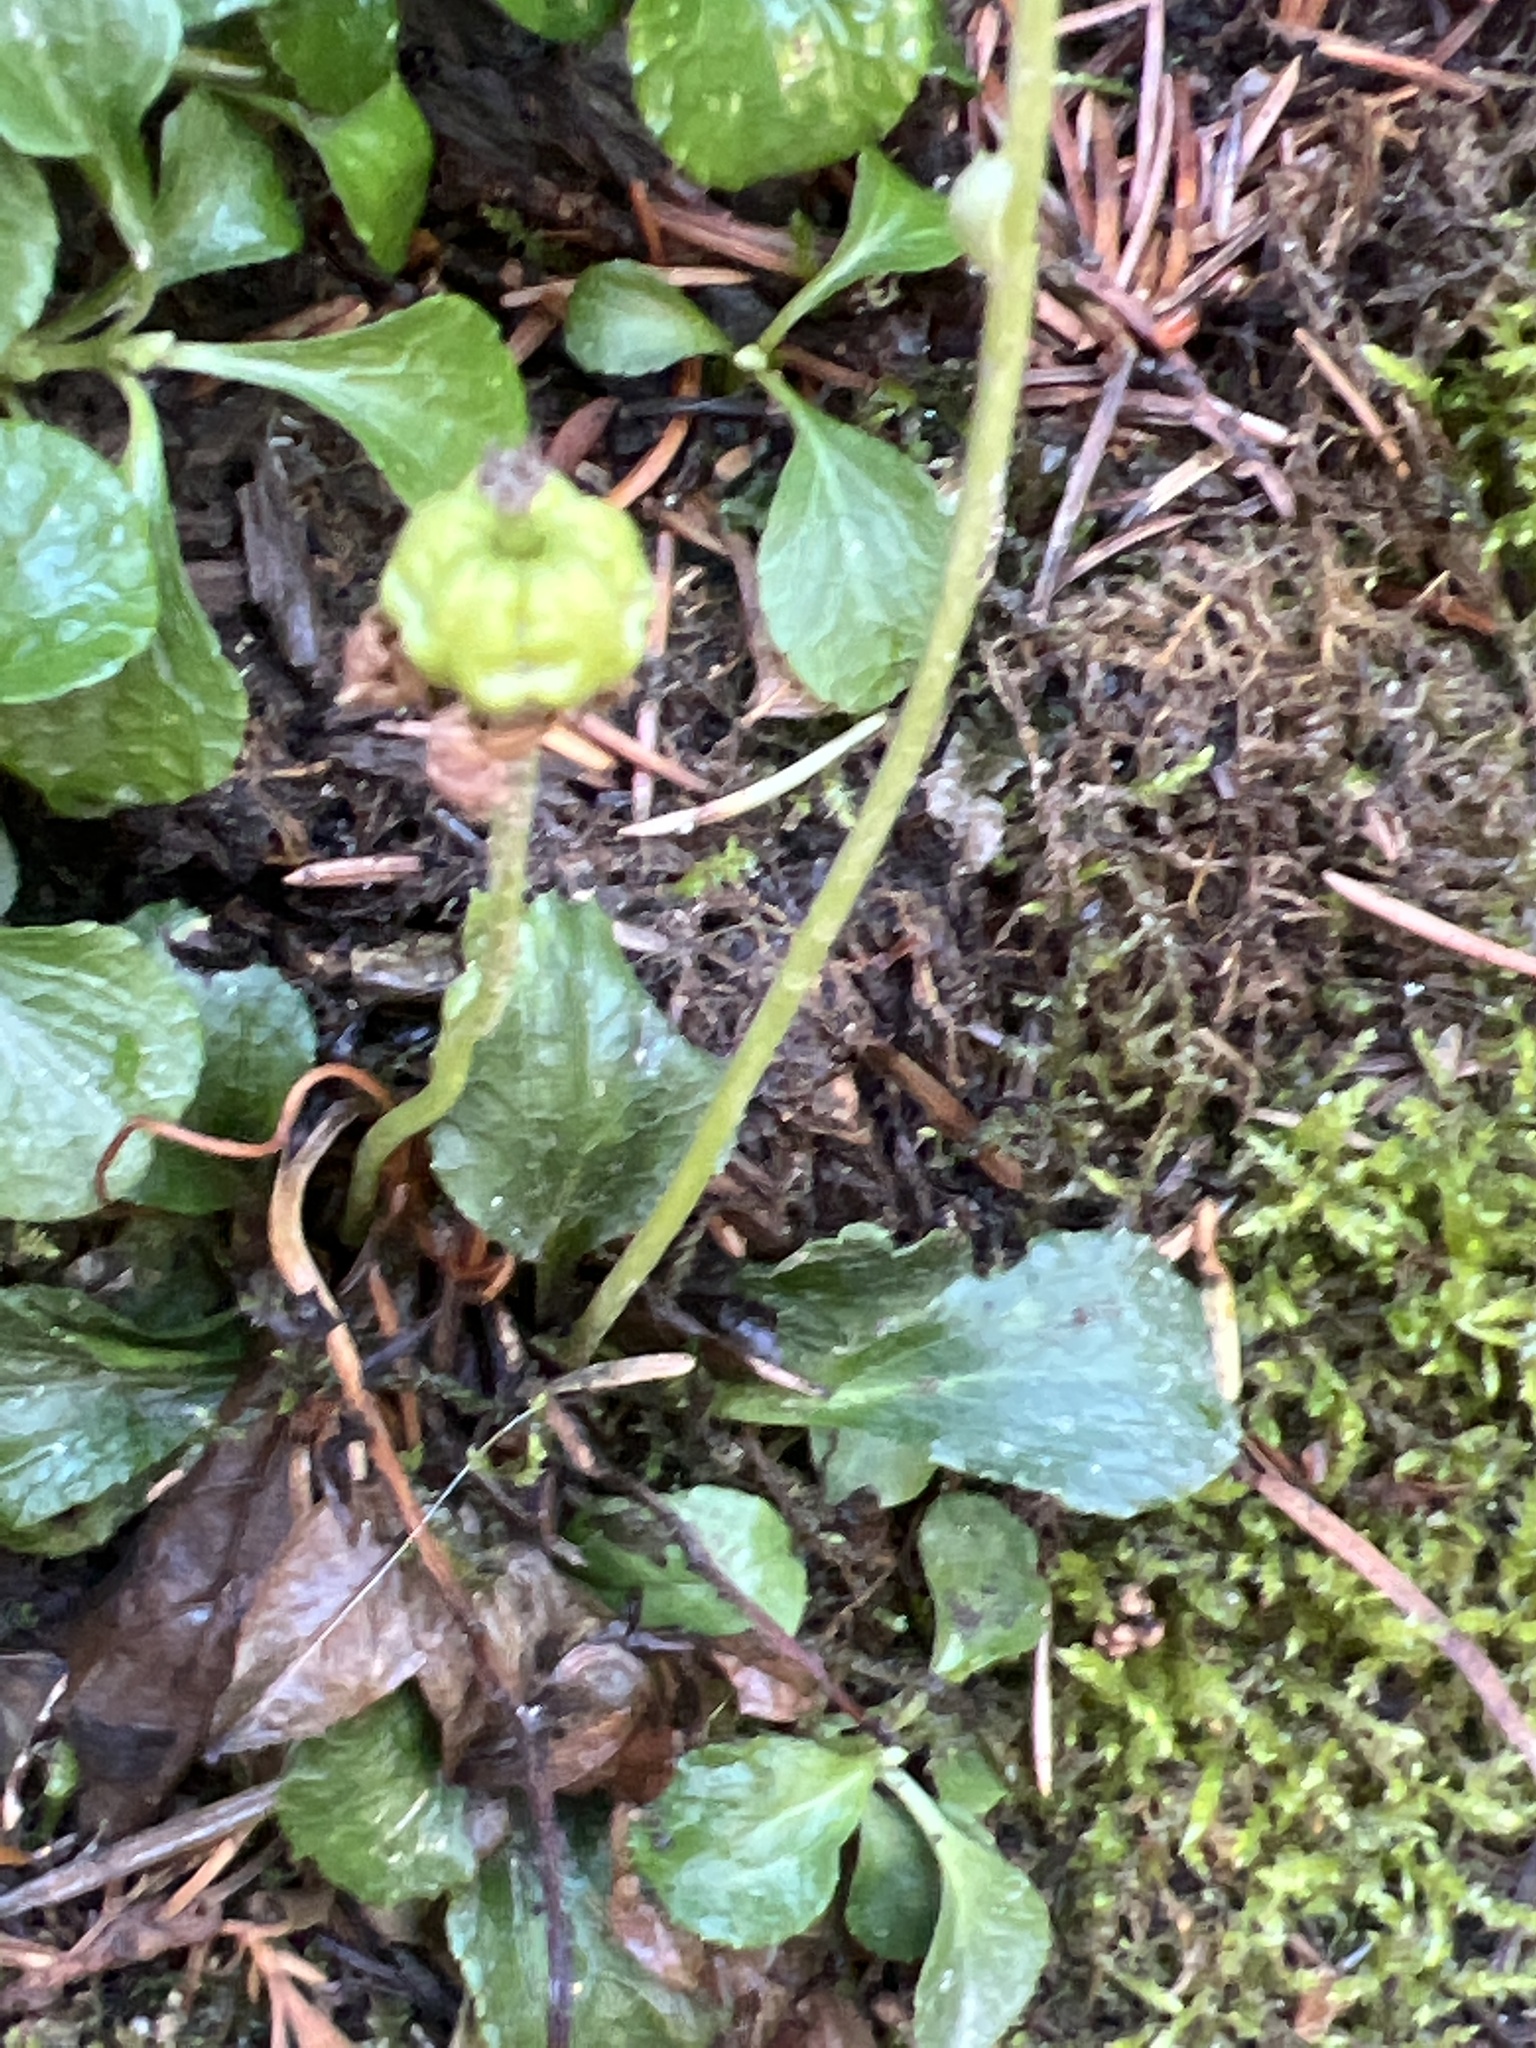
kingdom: Plantae
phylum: Tracheophyta
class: Magnoliopsida
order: Ericales
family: Ericaceae
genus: Moneses
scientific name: Moneses uniflora
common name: One-flowered wintergreen
